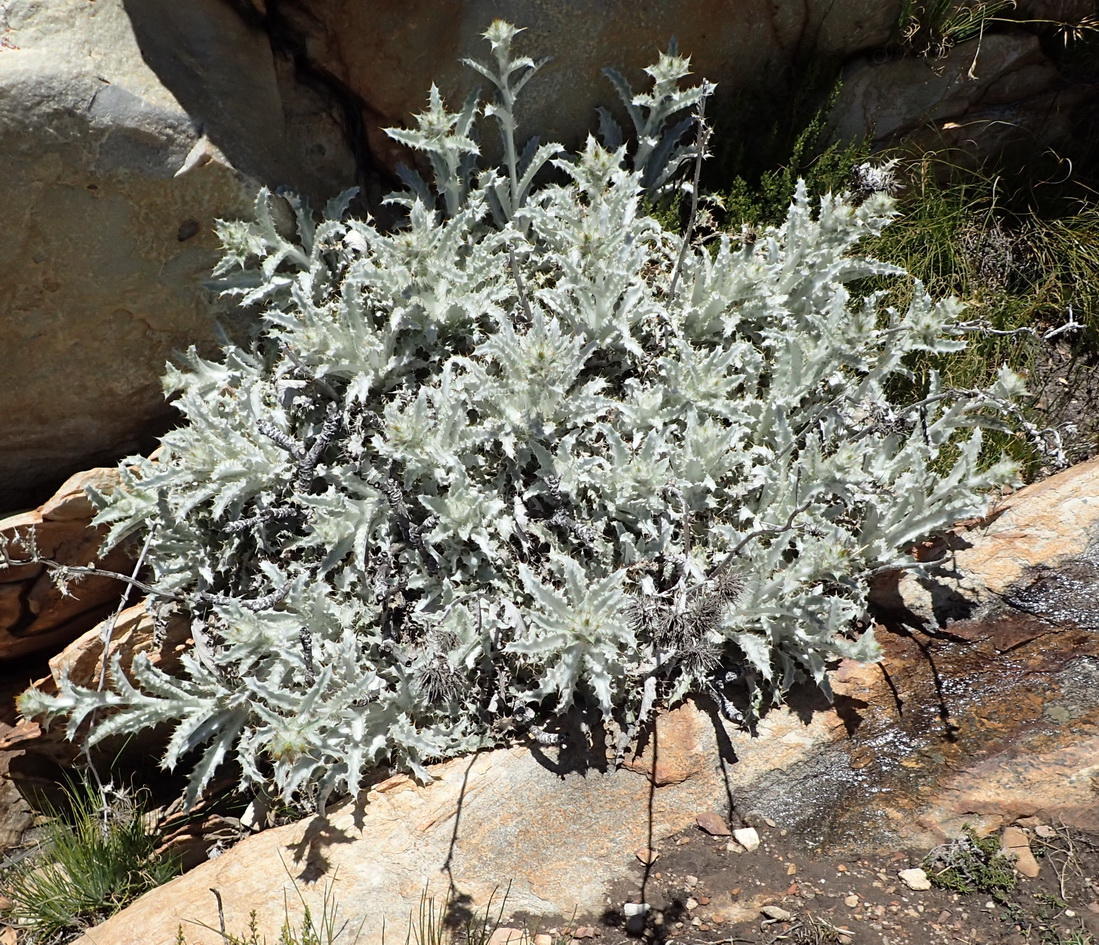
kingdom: Plantae
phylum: Tracheophyta
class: Magnoliopsida
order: Asterales
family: Asteraceae
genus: Berkheya
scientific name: Berkheya francisci
